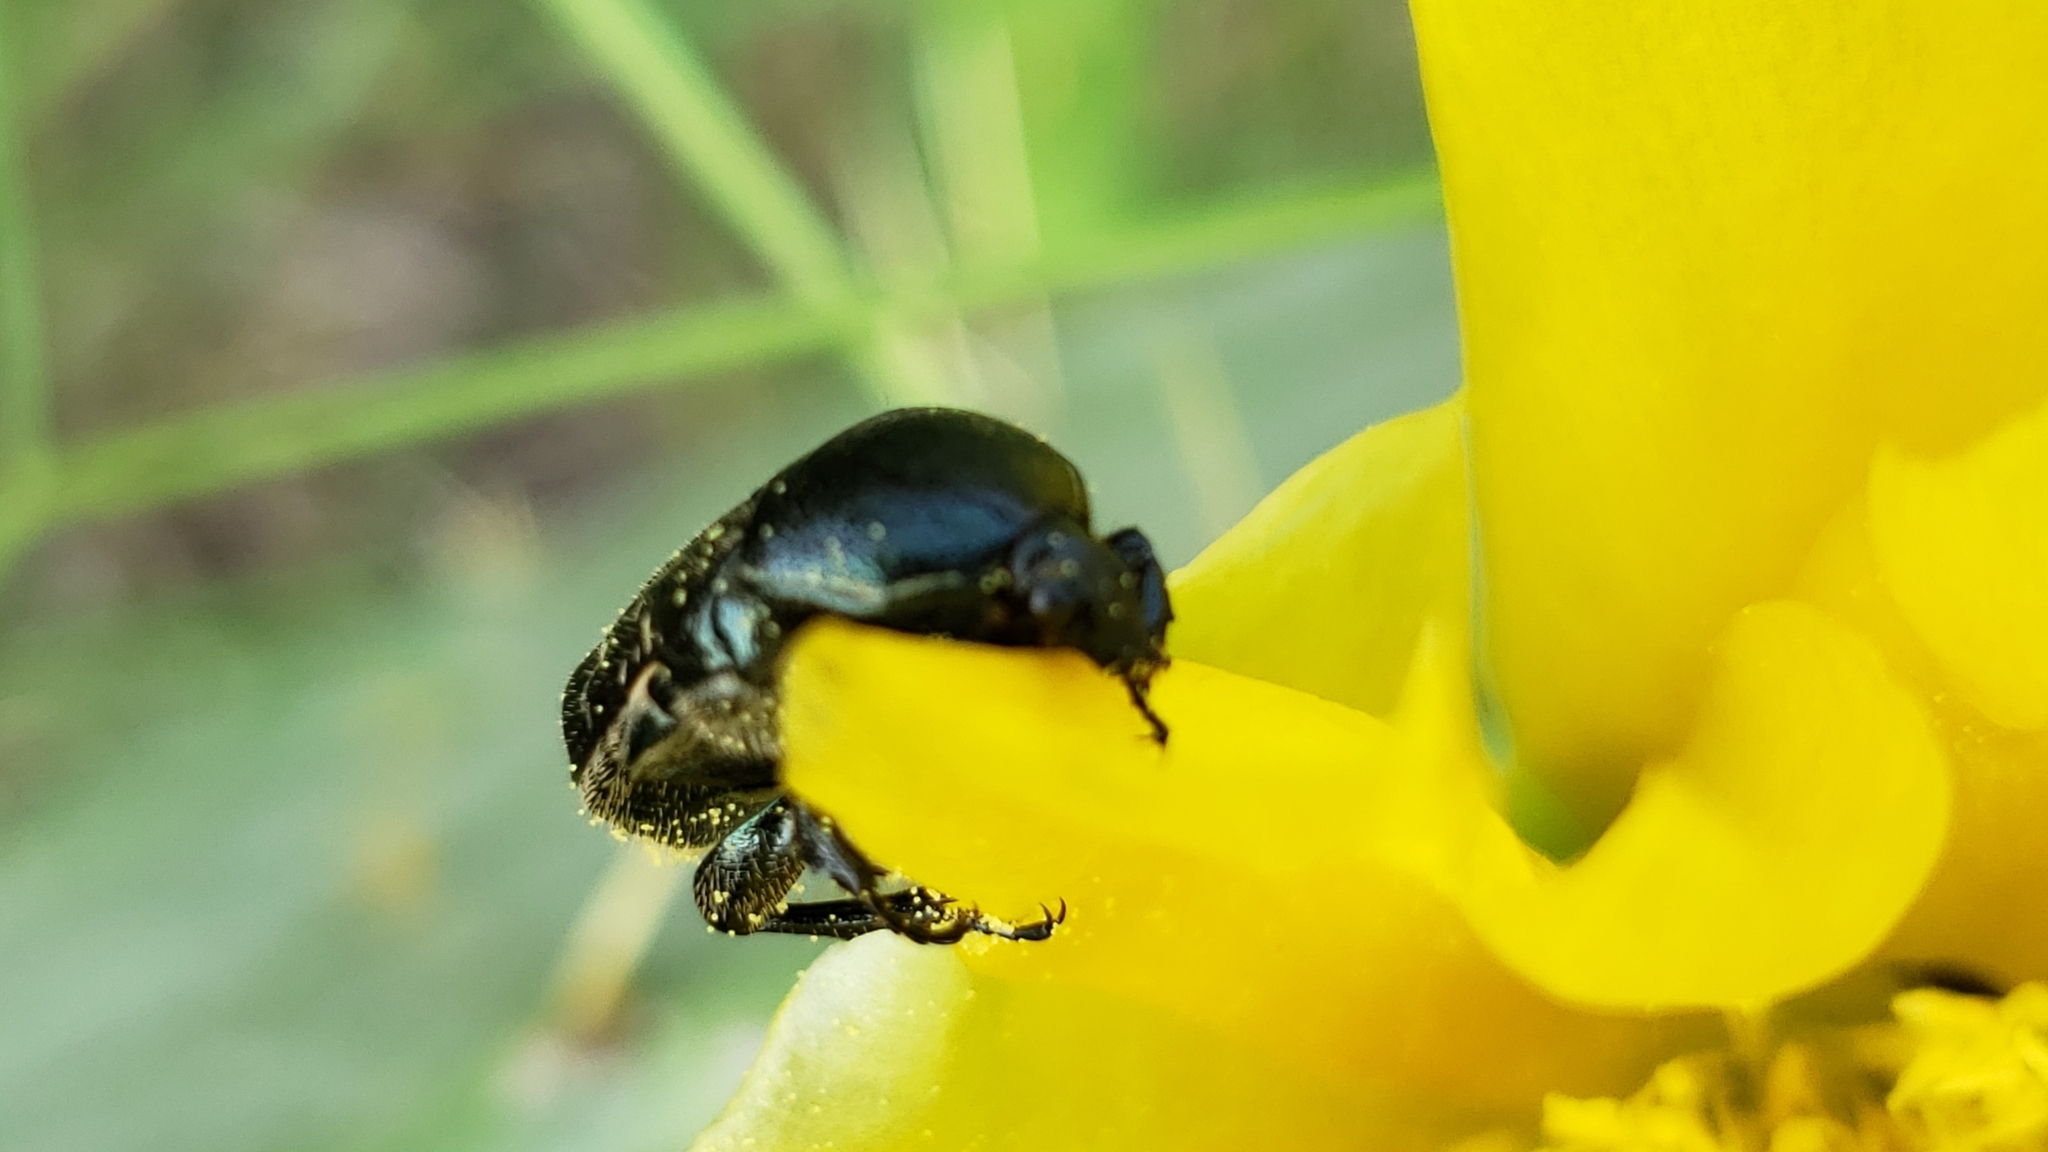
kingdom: Animalia
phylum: Arthropoda
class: Insecta
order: Coleoptera
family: Scarabaeidae
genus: Euphoria
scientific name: Euphoria sepulcralis
